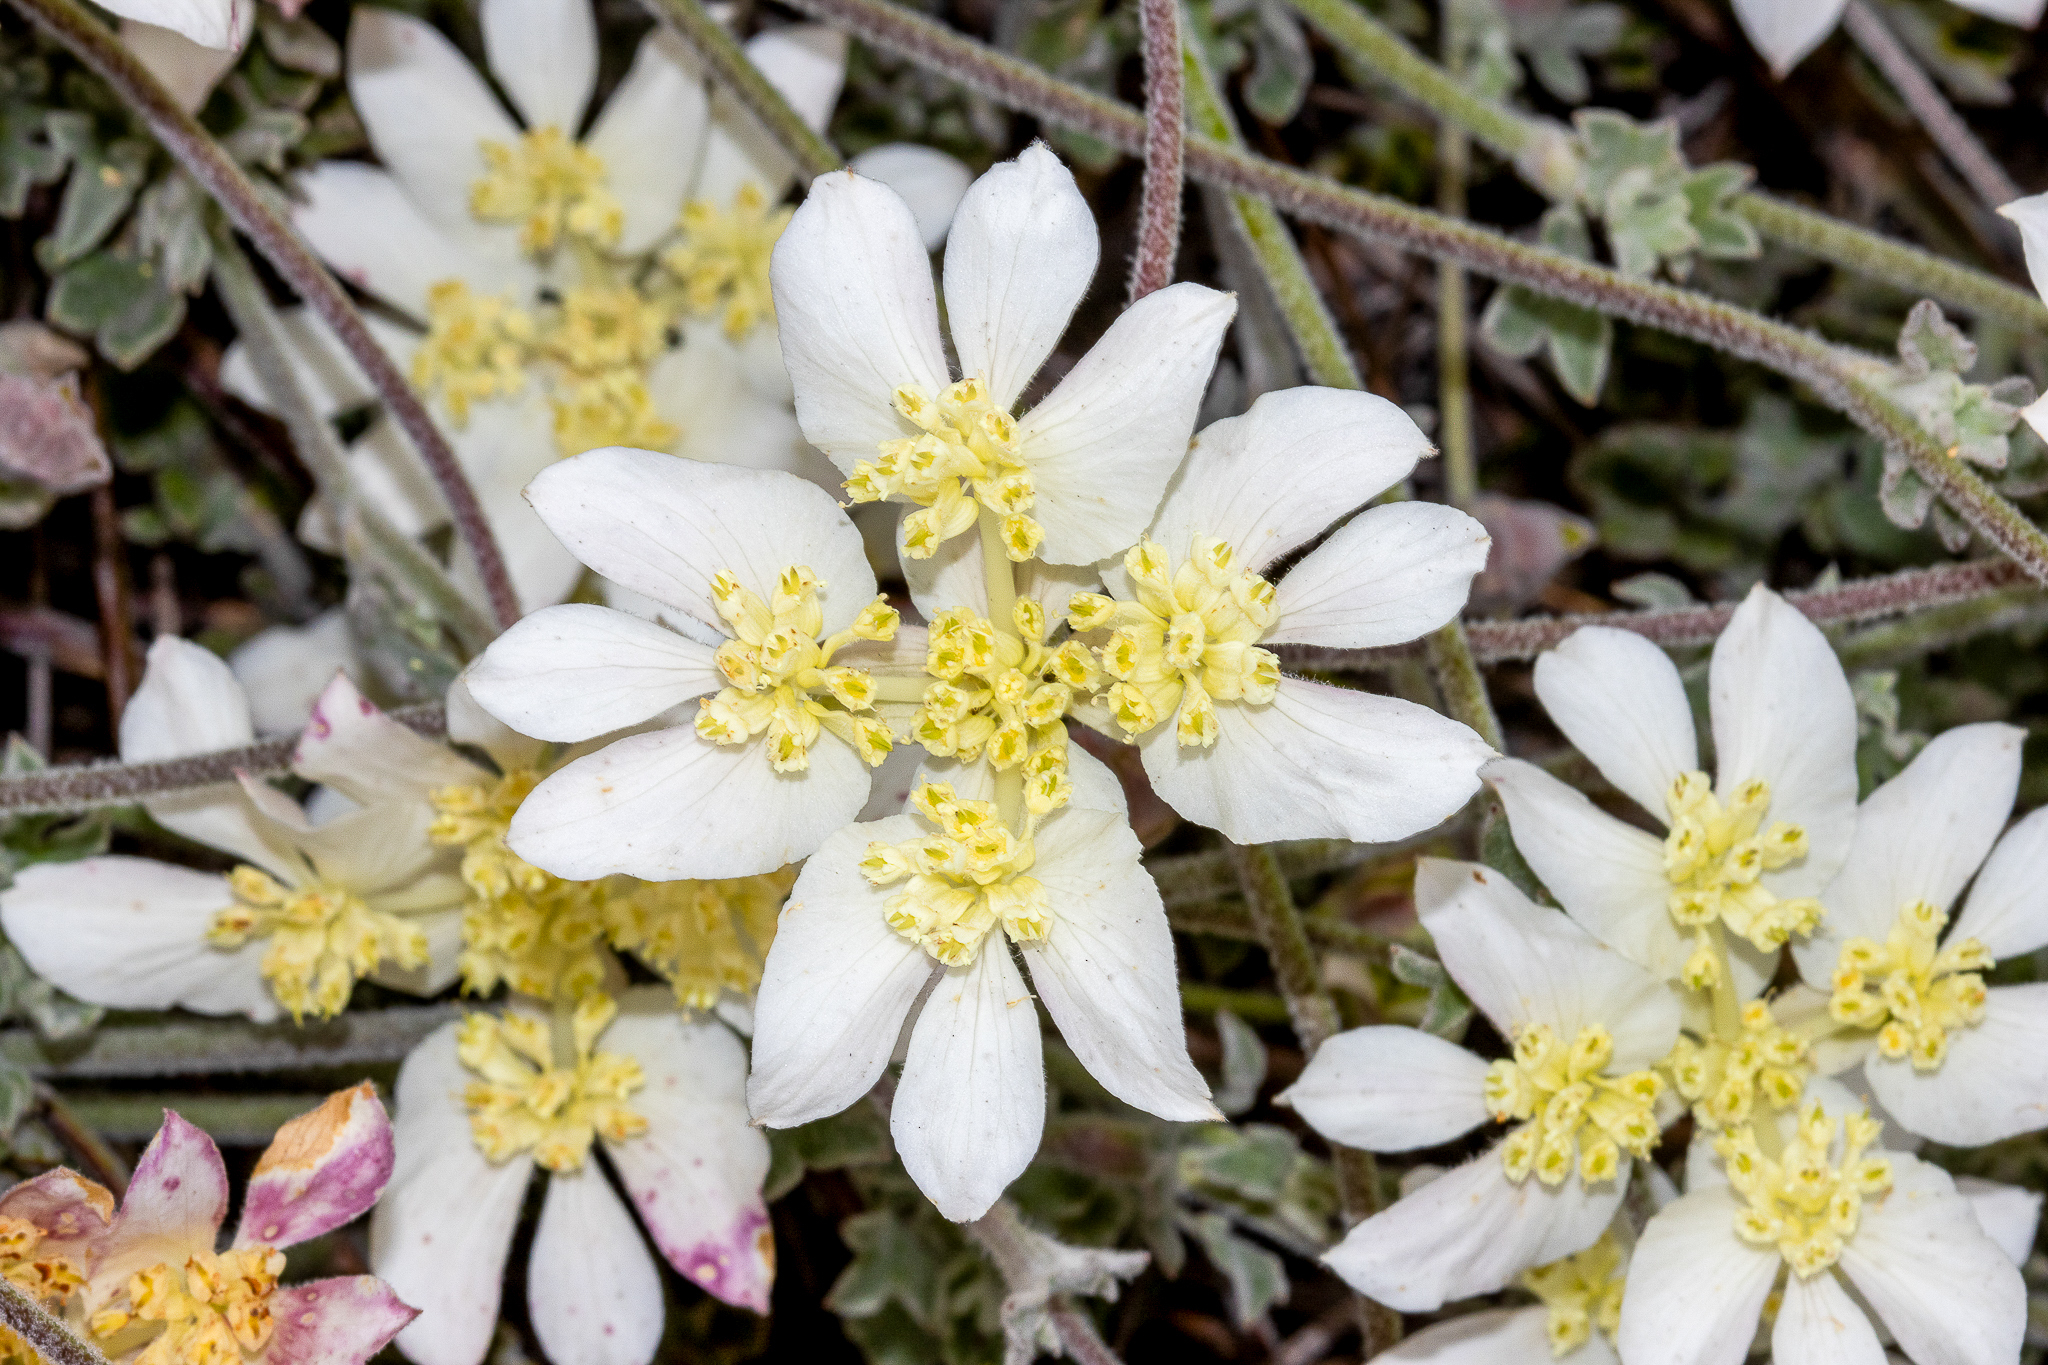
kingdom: Plantae
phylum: Tracheophyta
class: Magnoliopsida
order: Apiales
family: Apiaceae
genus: Xanthosia
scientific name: Xanthosia tomentosa
